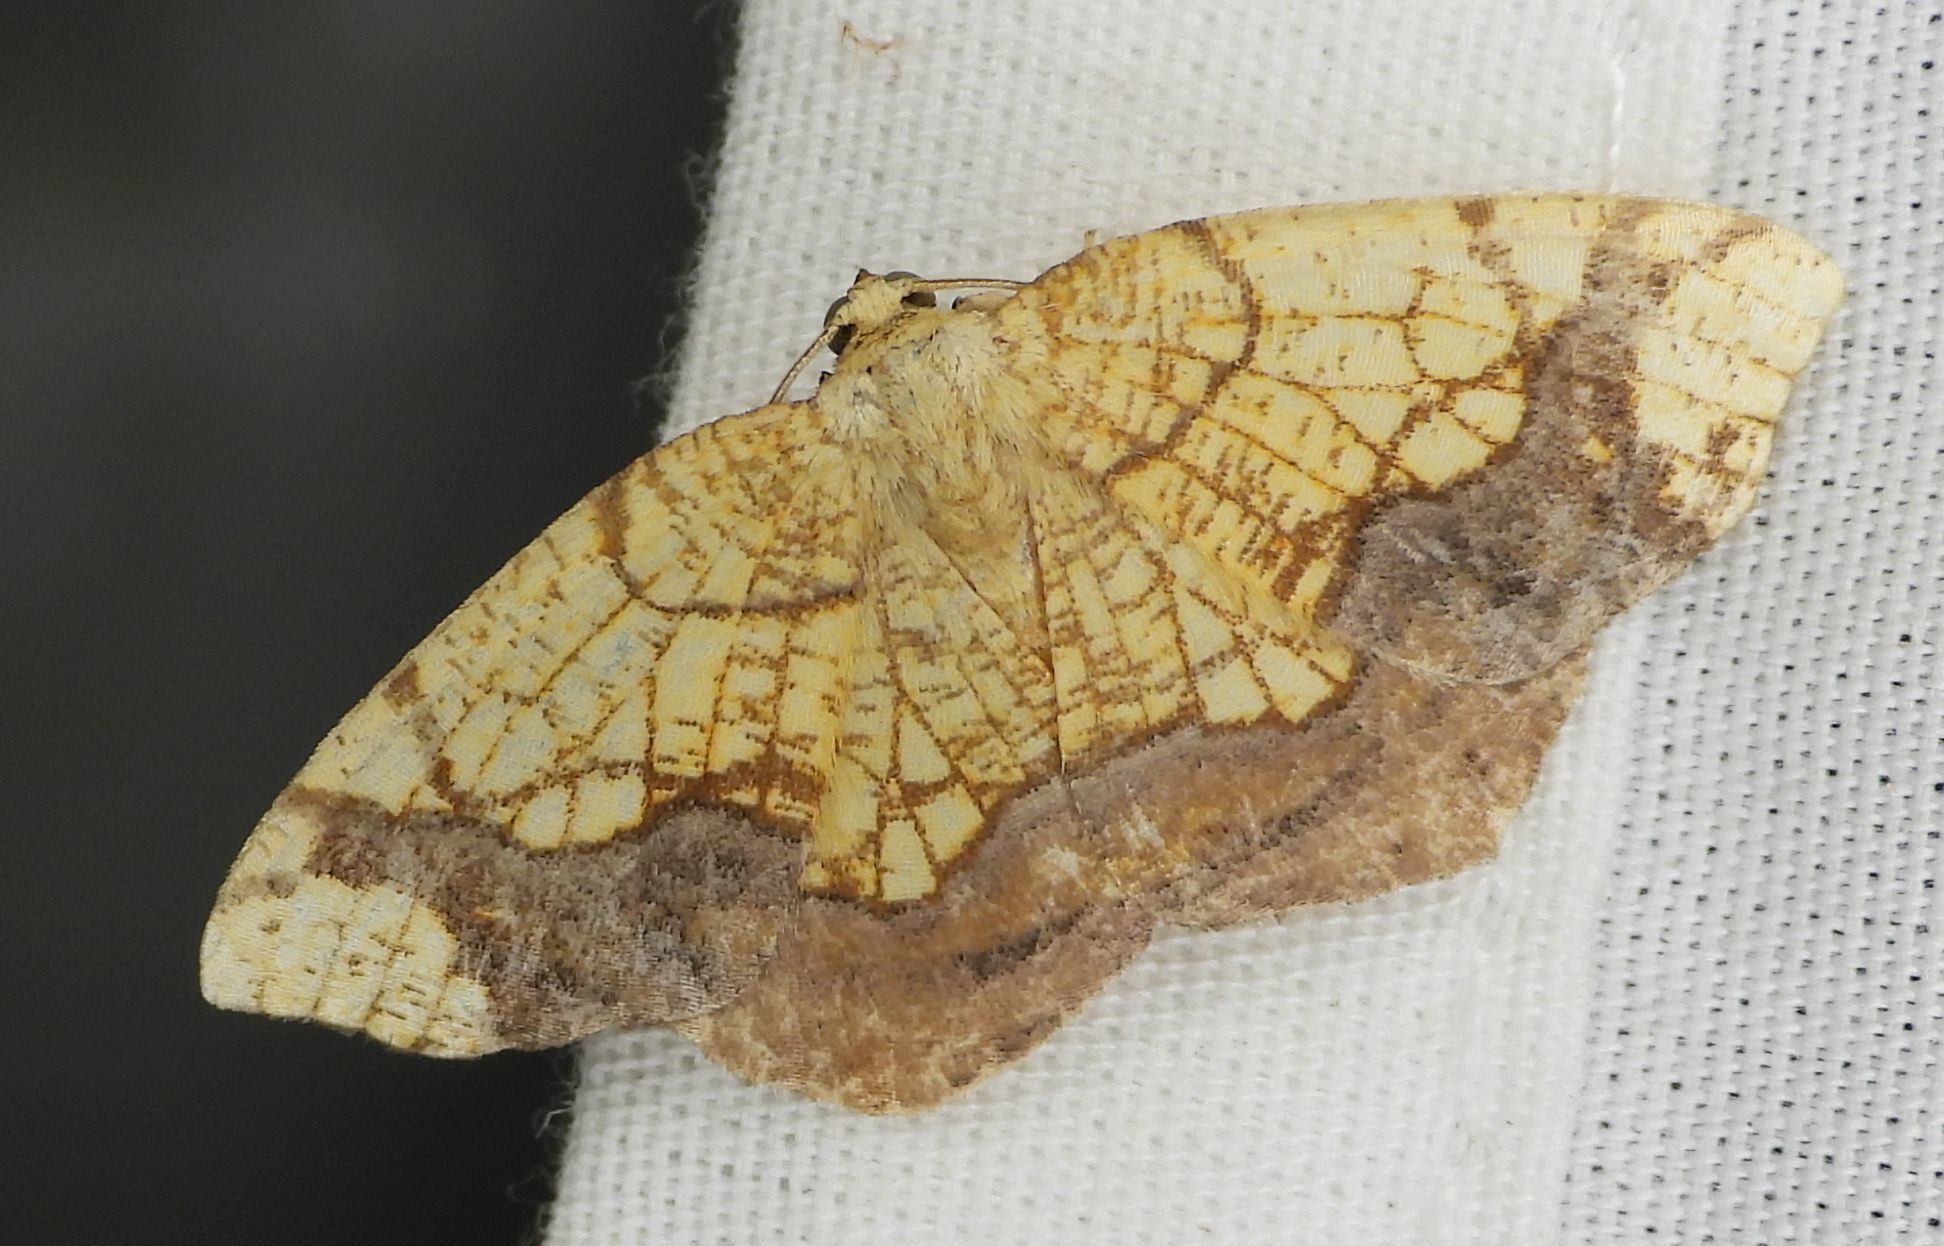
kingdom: Animalia
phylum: Arthropoda
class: Insecta
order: Lepidoptera
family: Geometridae
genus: Nematocampa
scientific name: Nematocampa resistaria
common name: Horned spanworm moth
